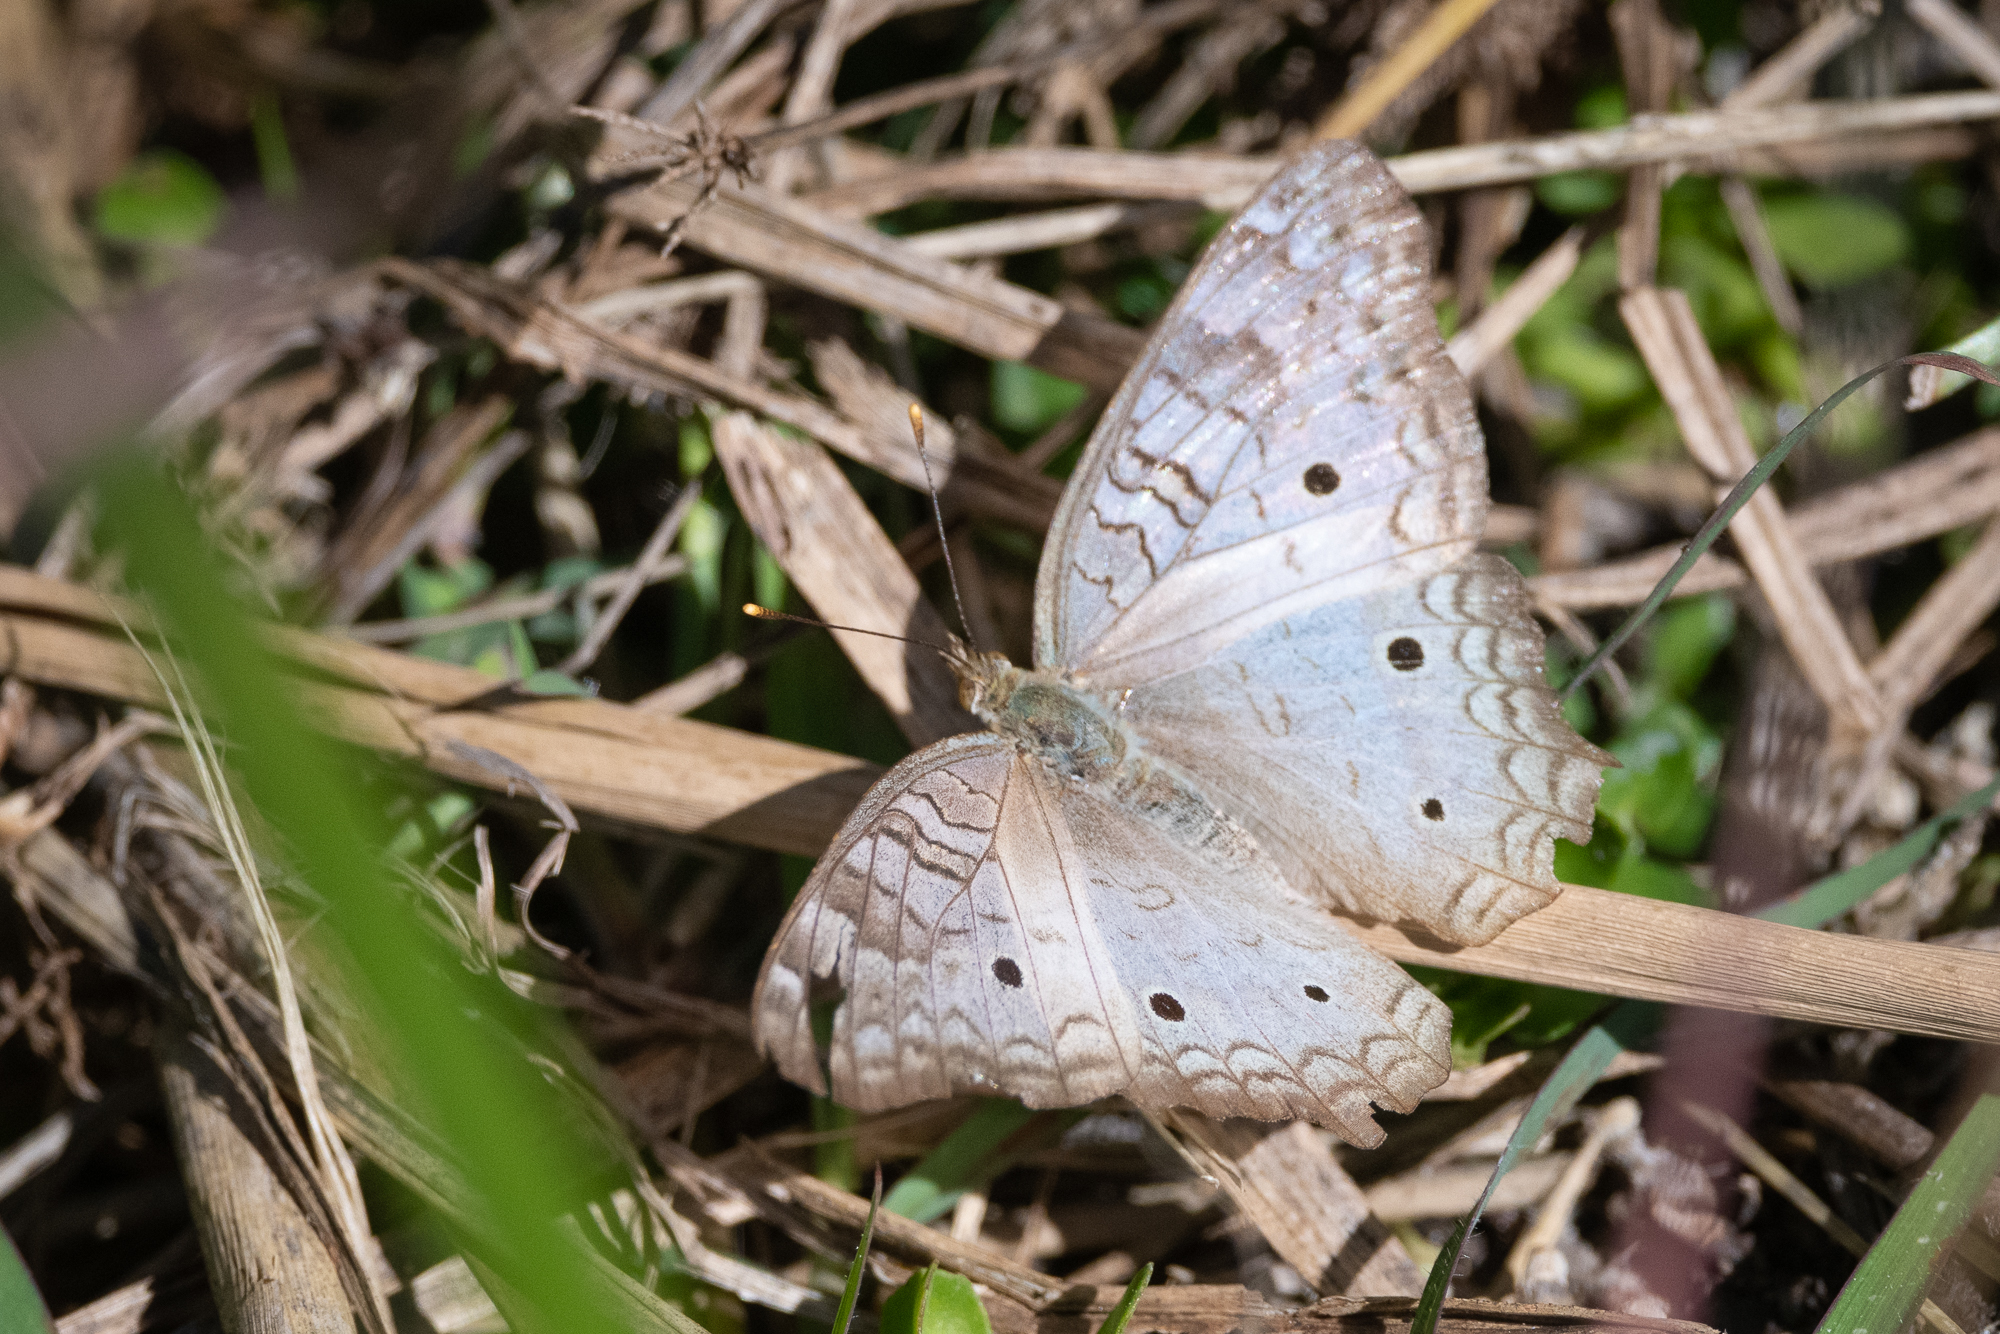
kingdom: Animalia
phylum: Arthropoda
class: Insecta
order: Lepidoptera
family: Nymphalidae
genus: Anartia
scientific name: Anartia jatrophae
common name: White peacock
